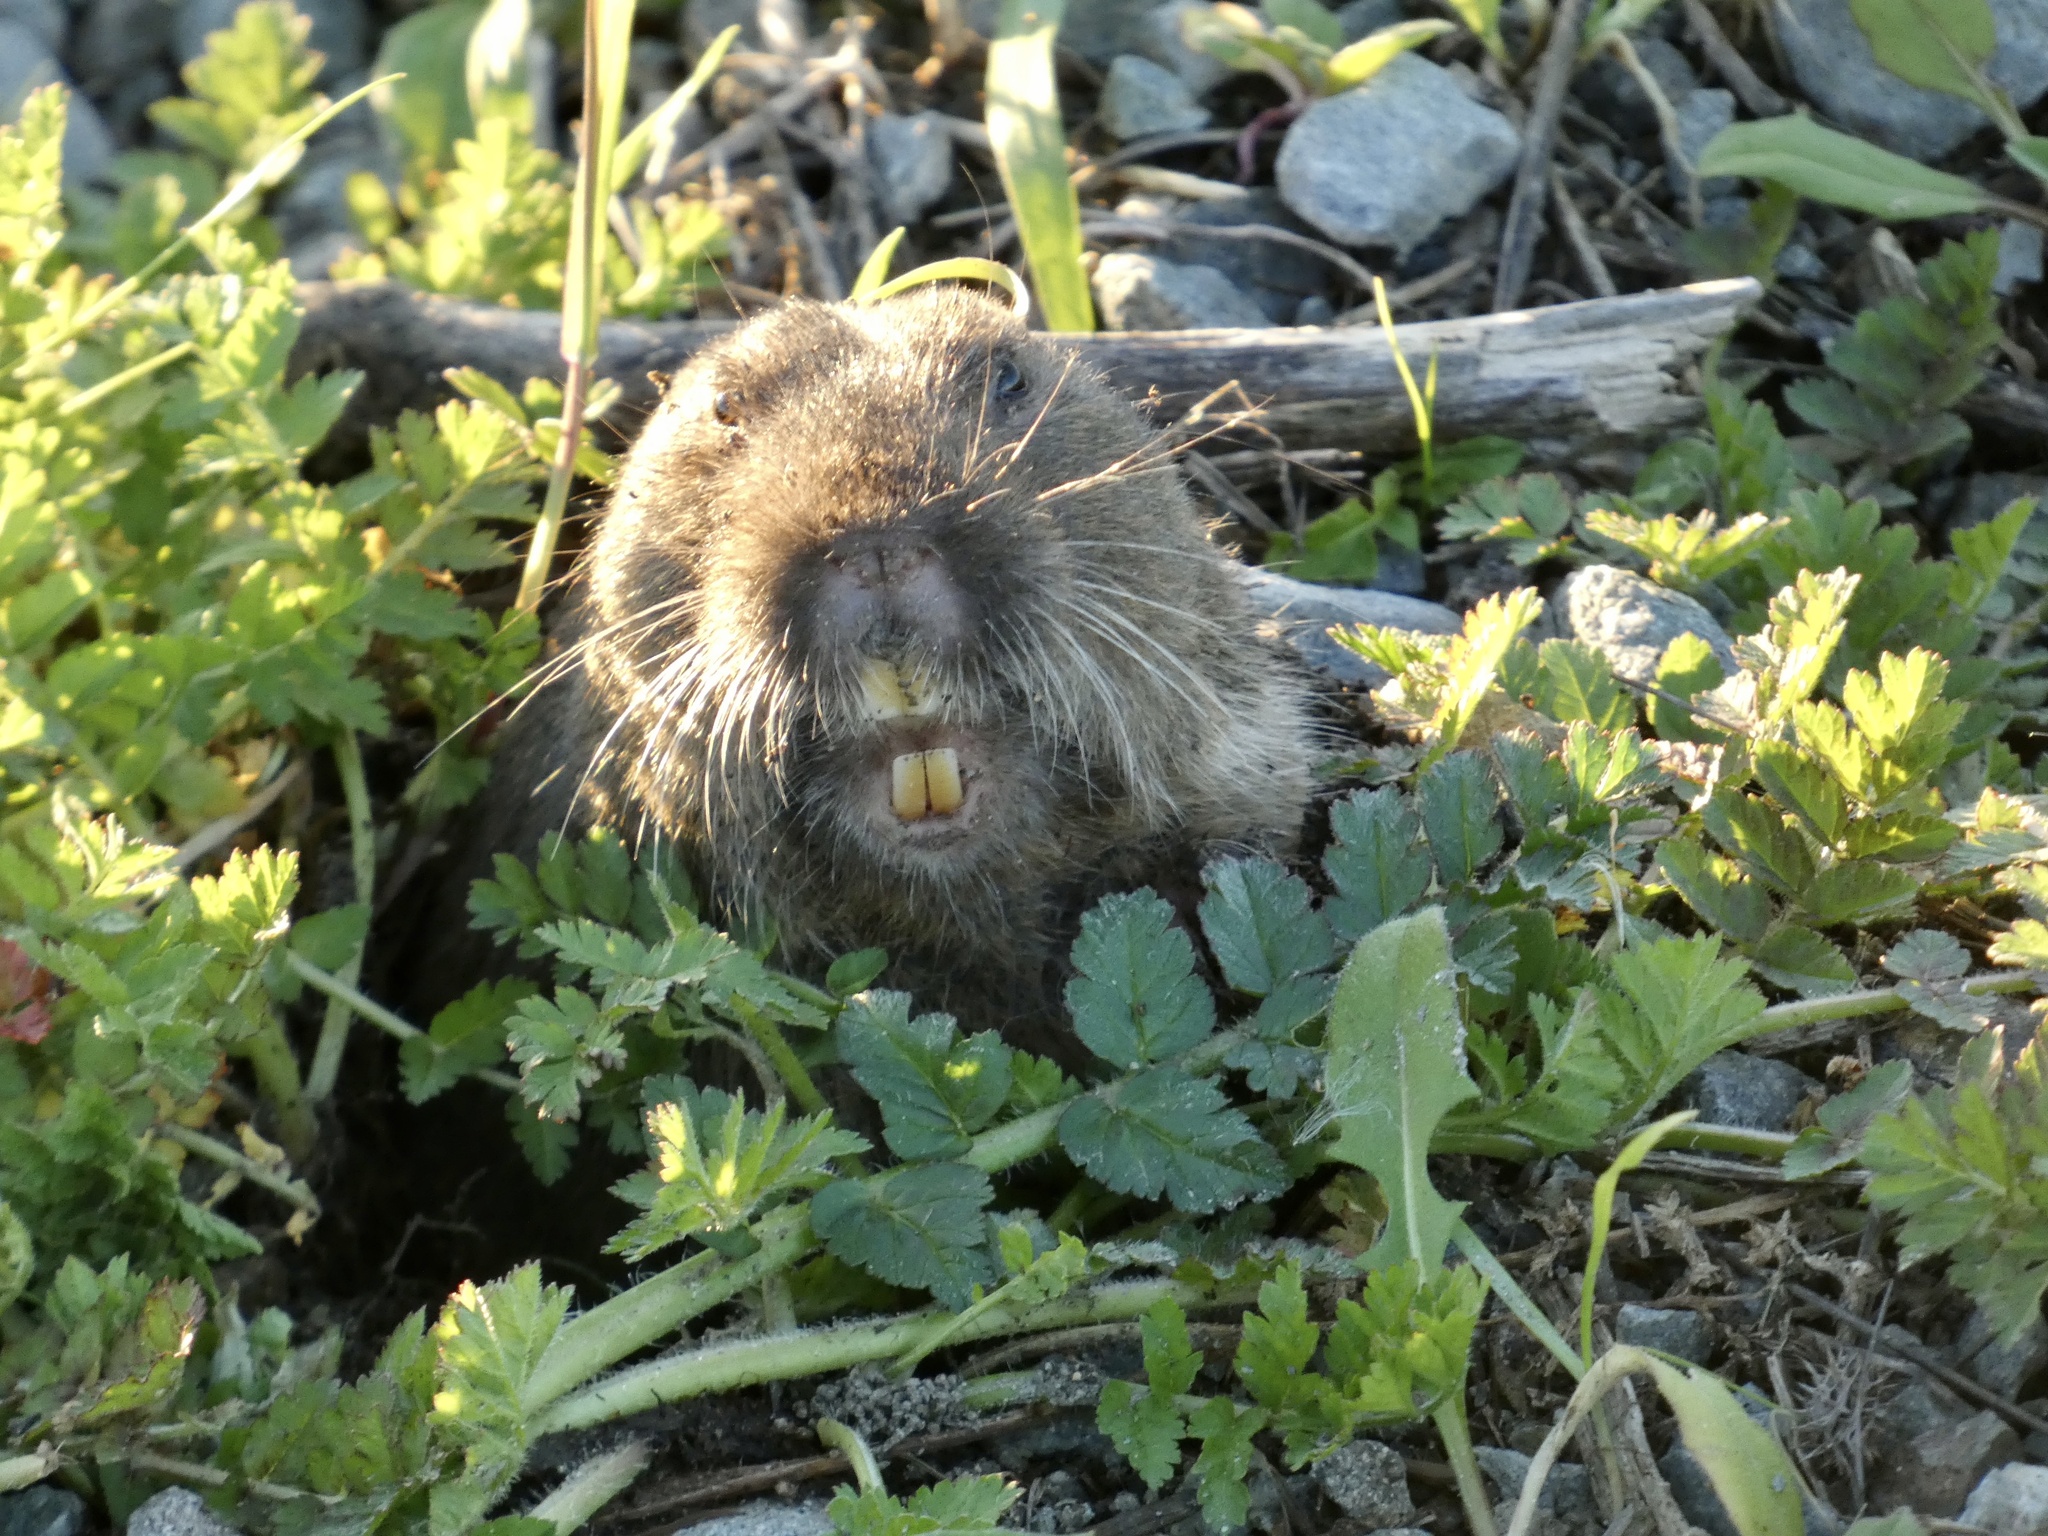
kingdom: Animalia
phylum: Chordata
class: Mammalia
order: Rodentia
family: Geomyidae
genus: Thomomys
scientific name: Thomomys bottae
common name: Botta's pocket gopher
